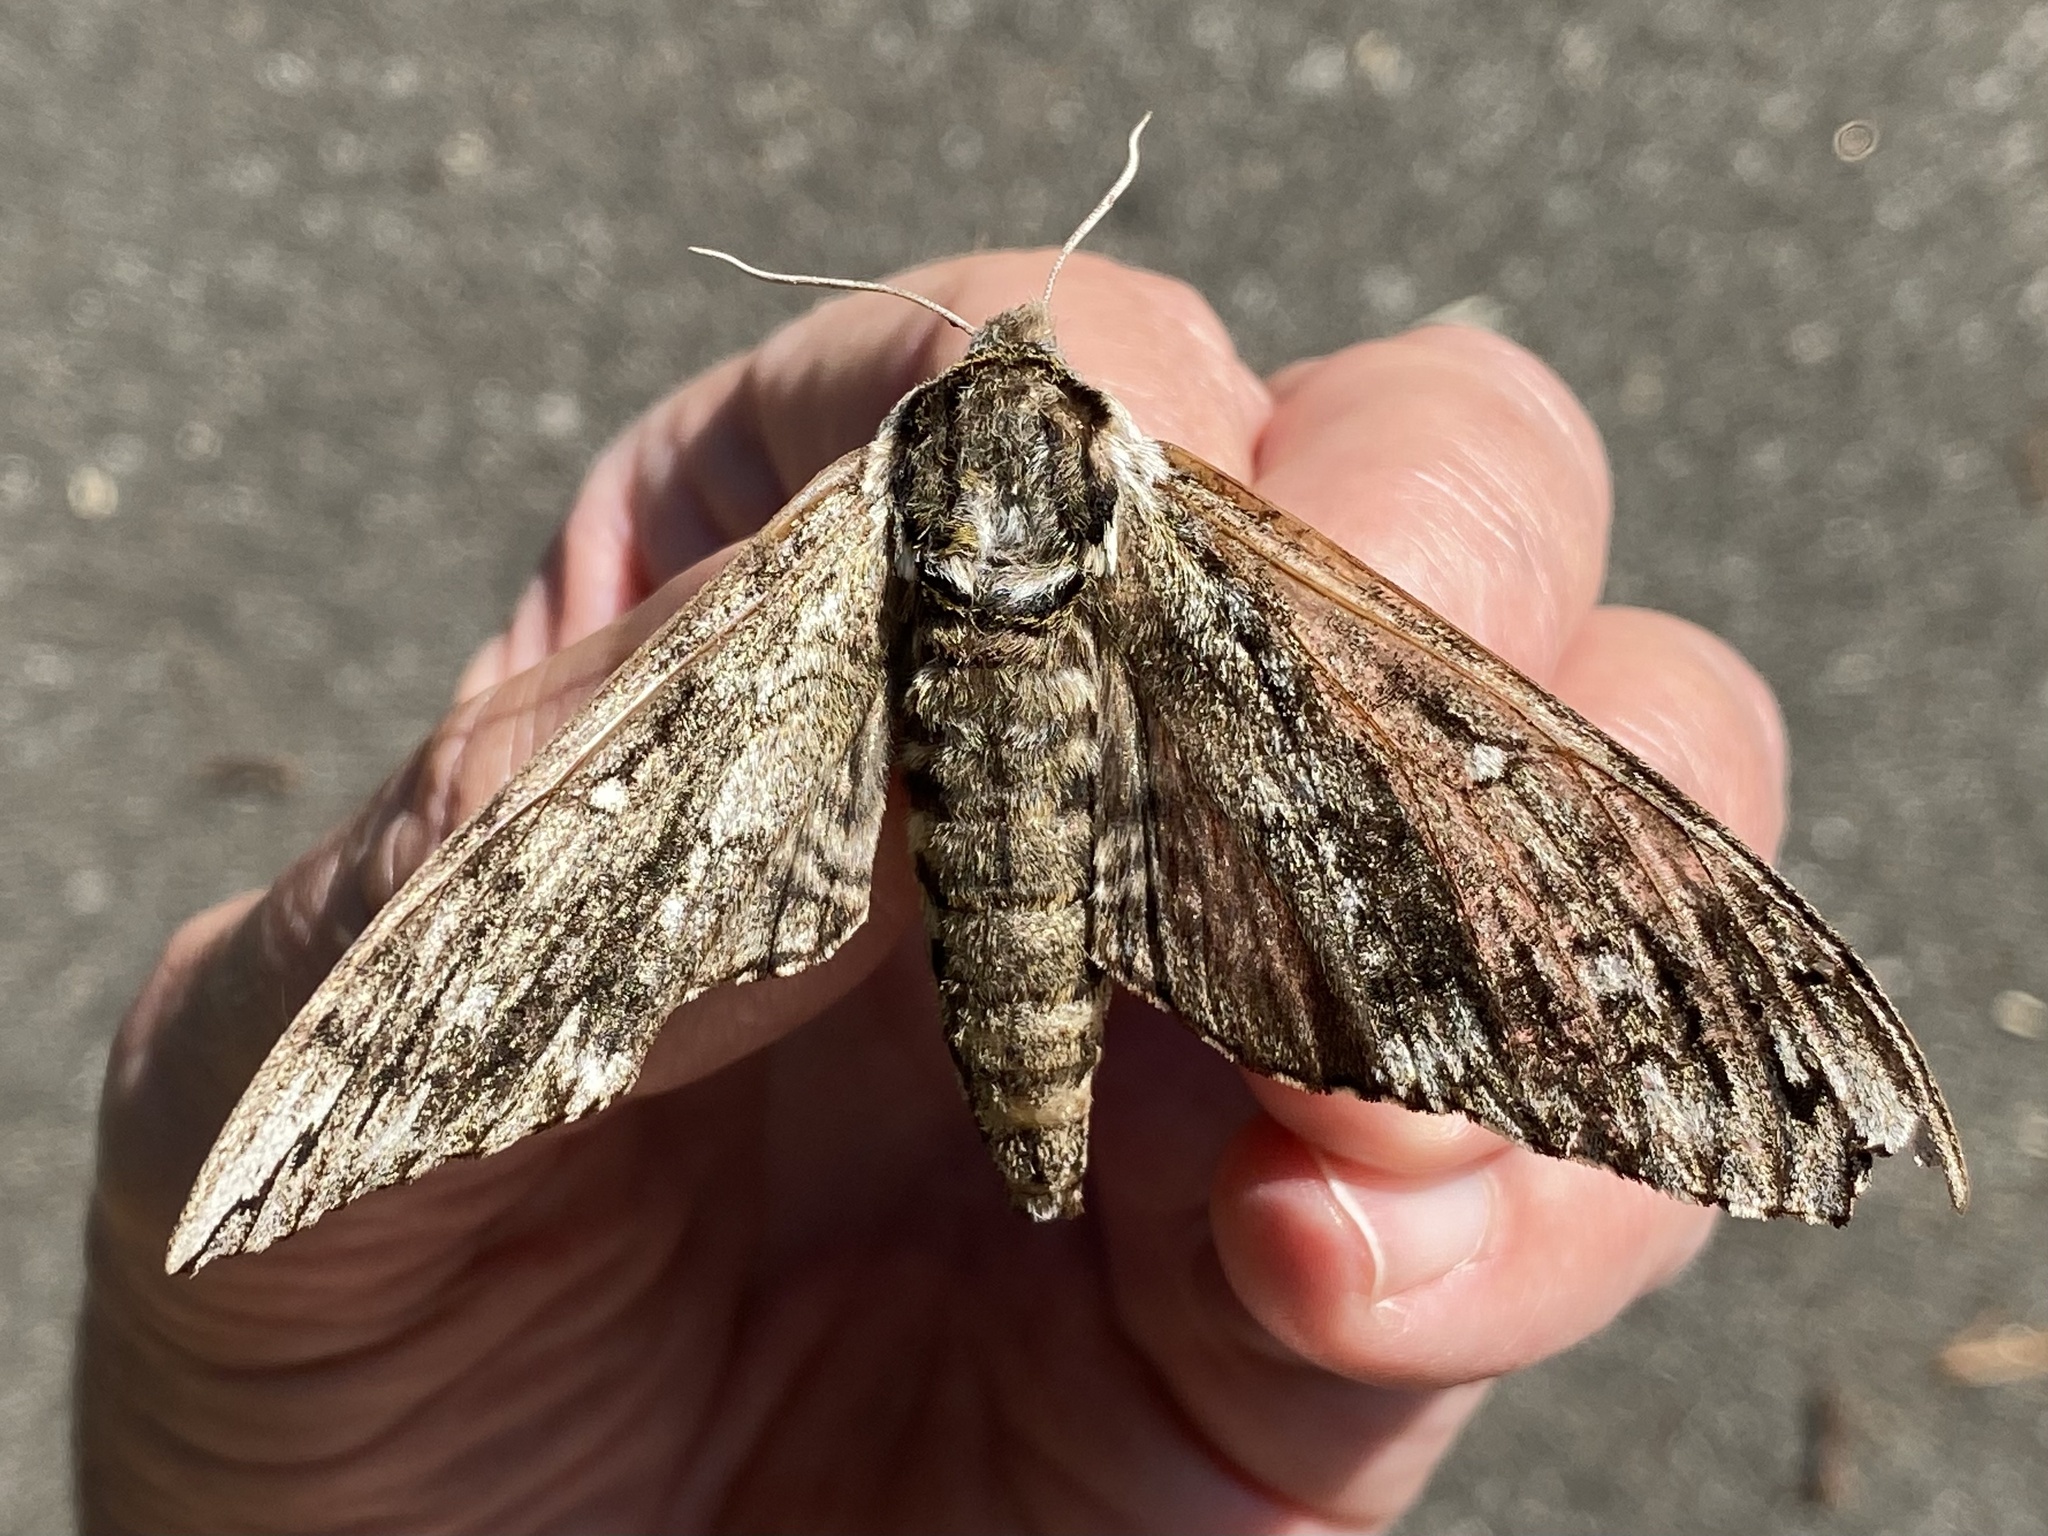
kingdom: Animalia
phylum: Arthropoda
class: Insecta
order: Lepidoptera
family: Sphingidae
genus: Ceratomia
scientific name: Ceratomia undulosa
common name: Waved sphinx
